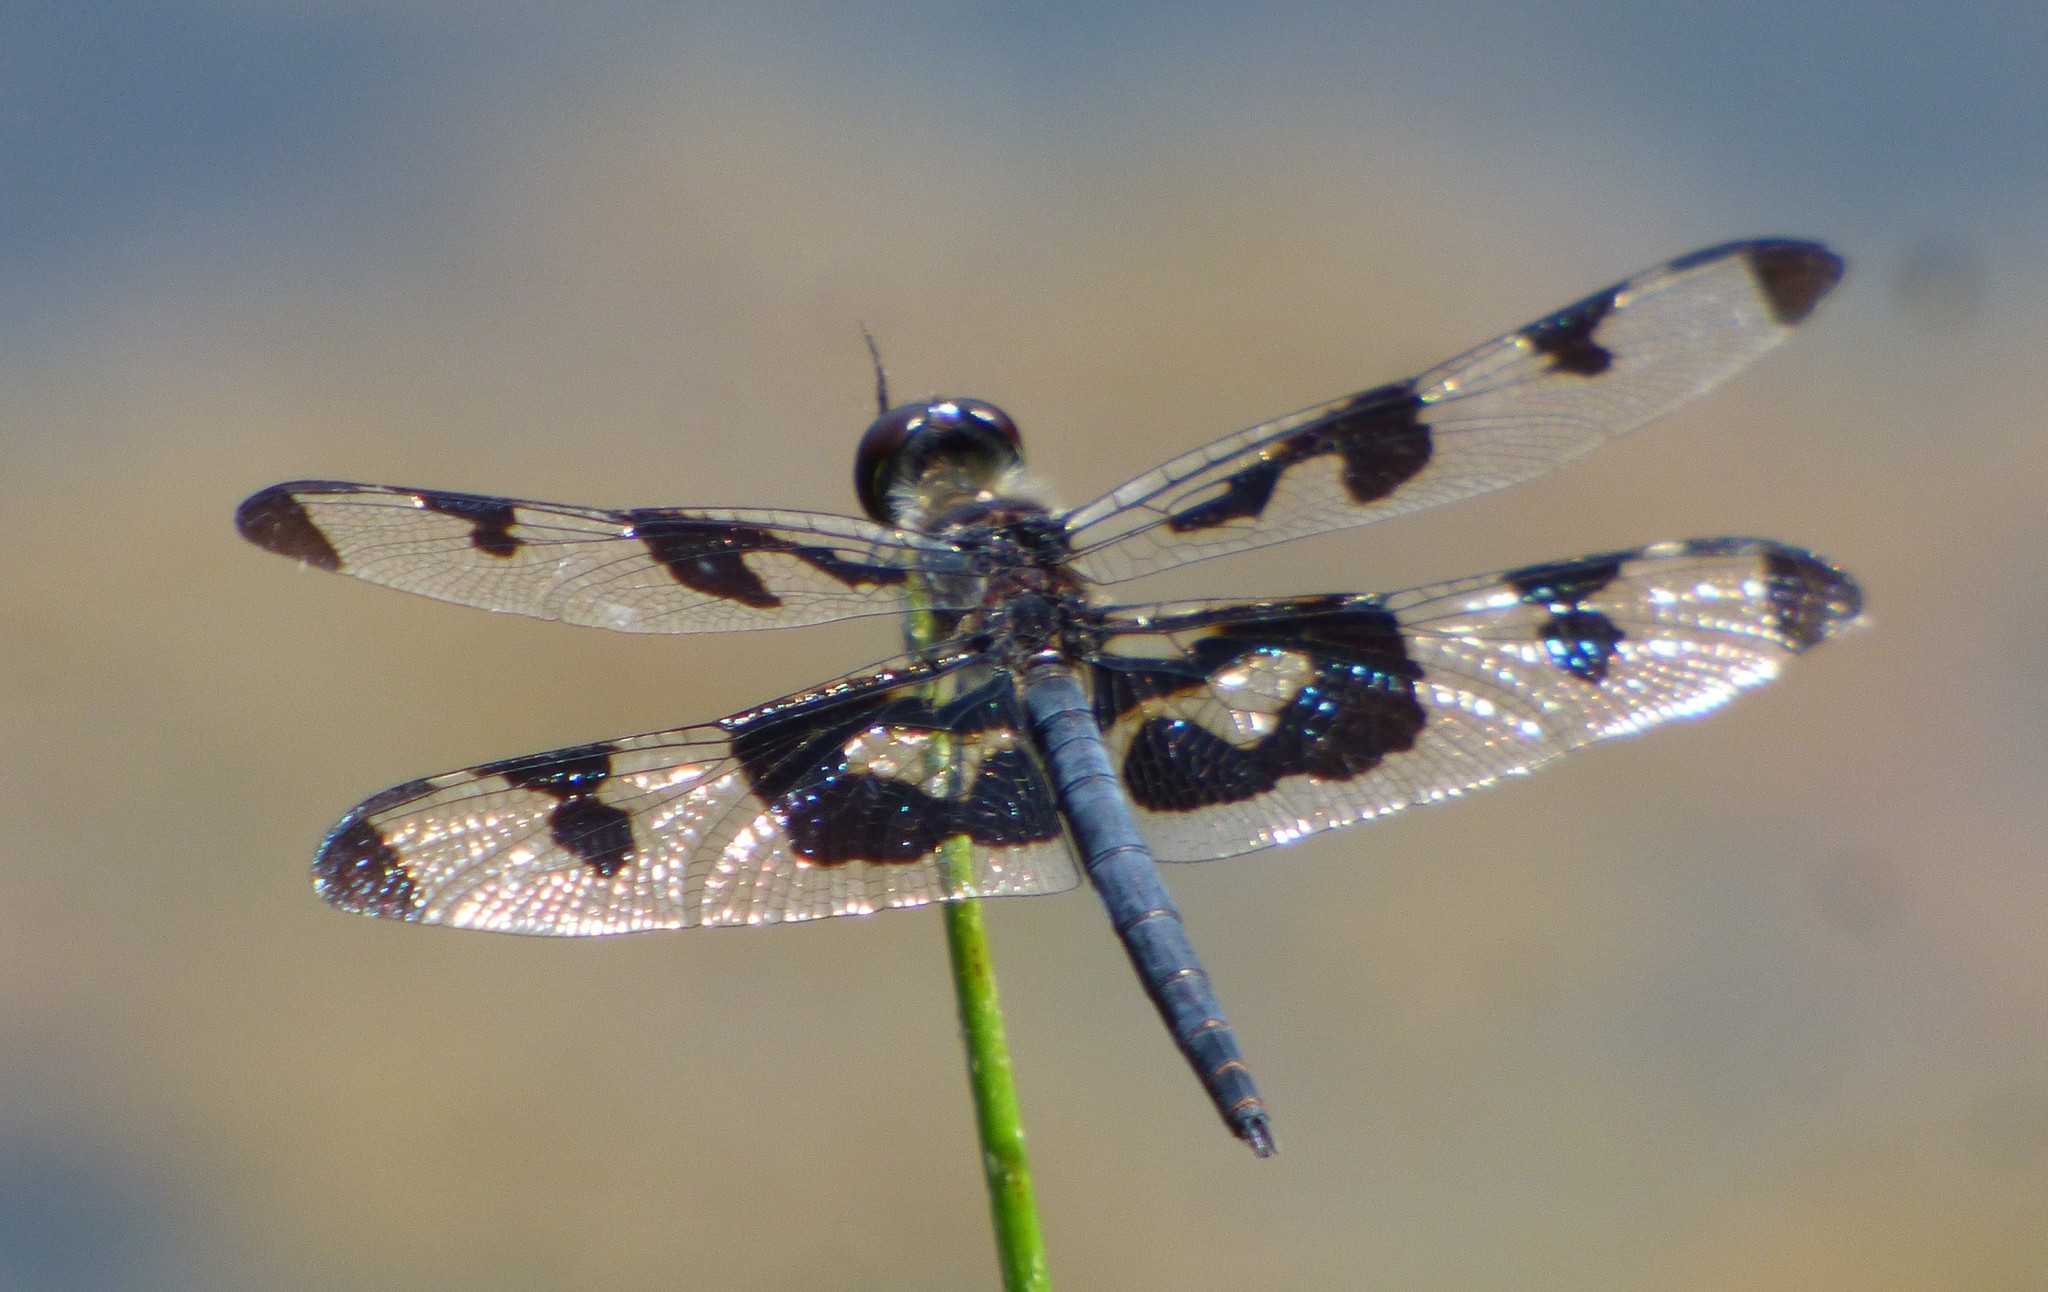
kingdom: Animalia
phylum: Arthropoda
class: Insecta
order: Odonata
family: Libellulidae
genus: Celithemis
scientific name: Celithemis fasciata
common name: Banded pennant
